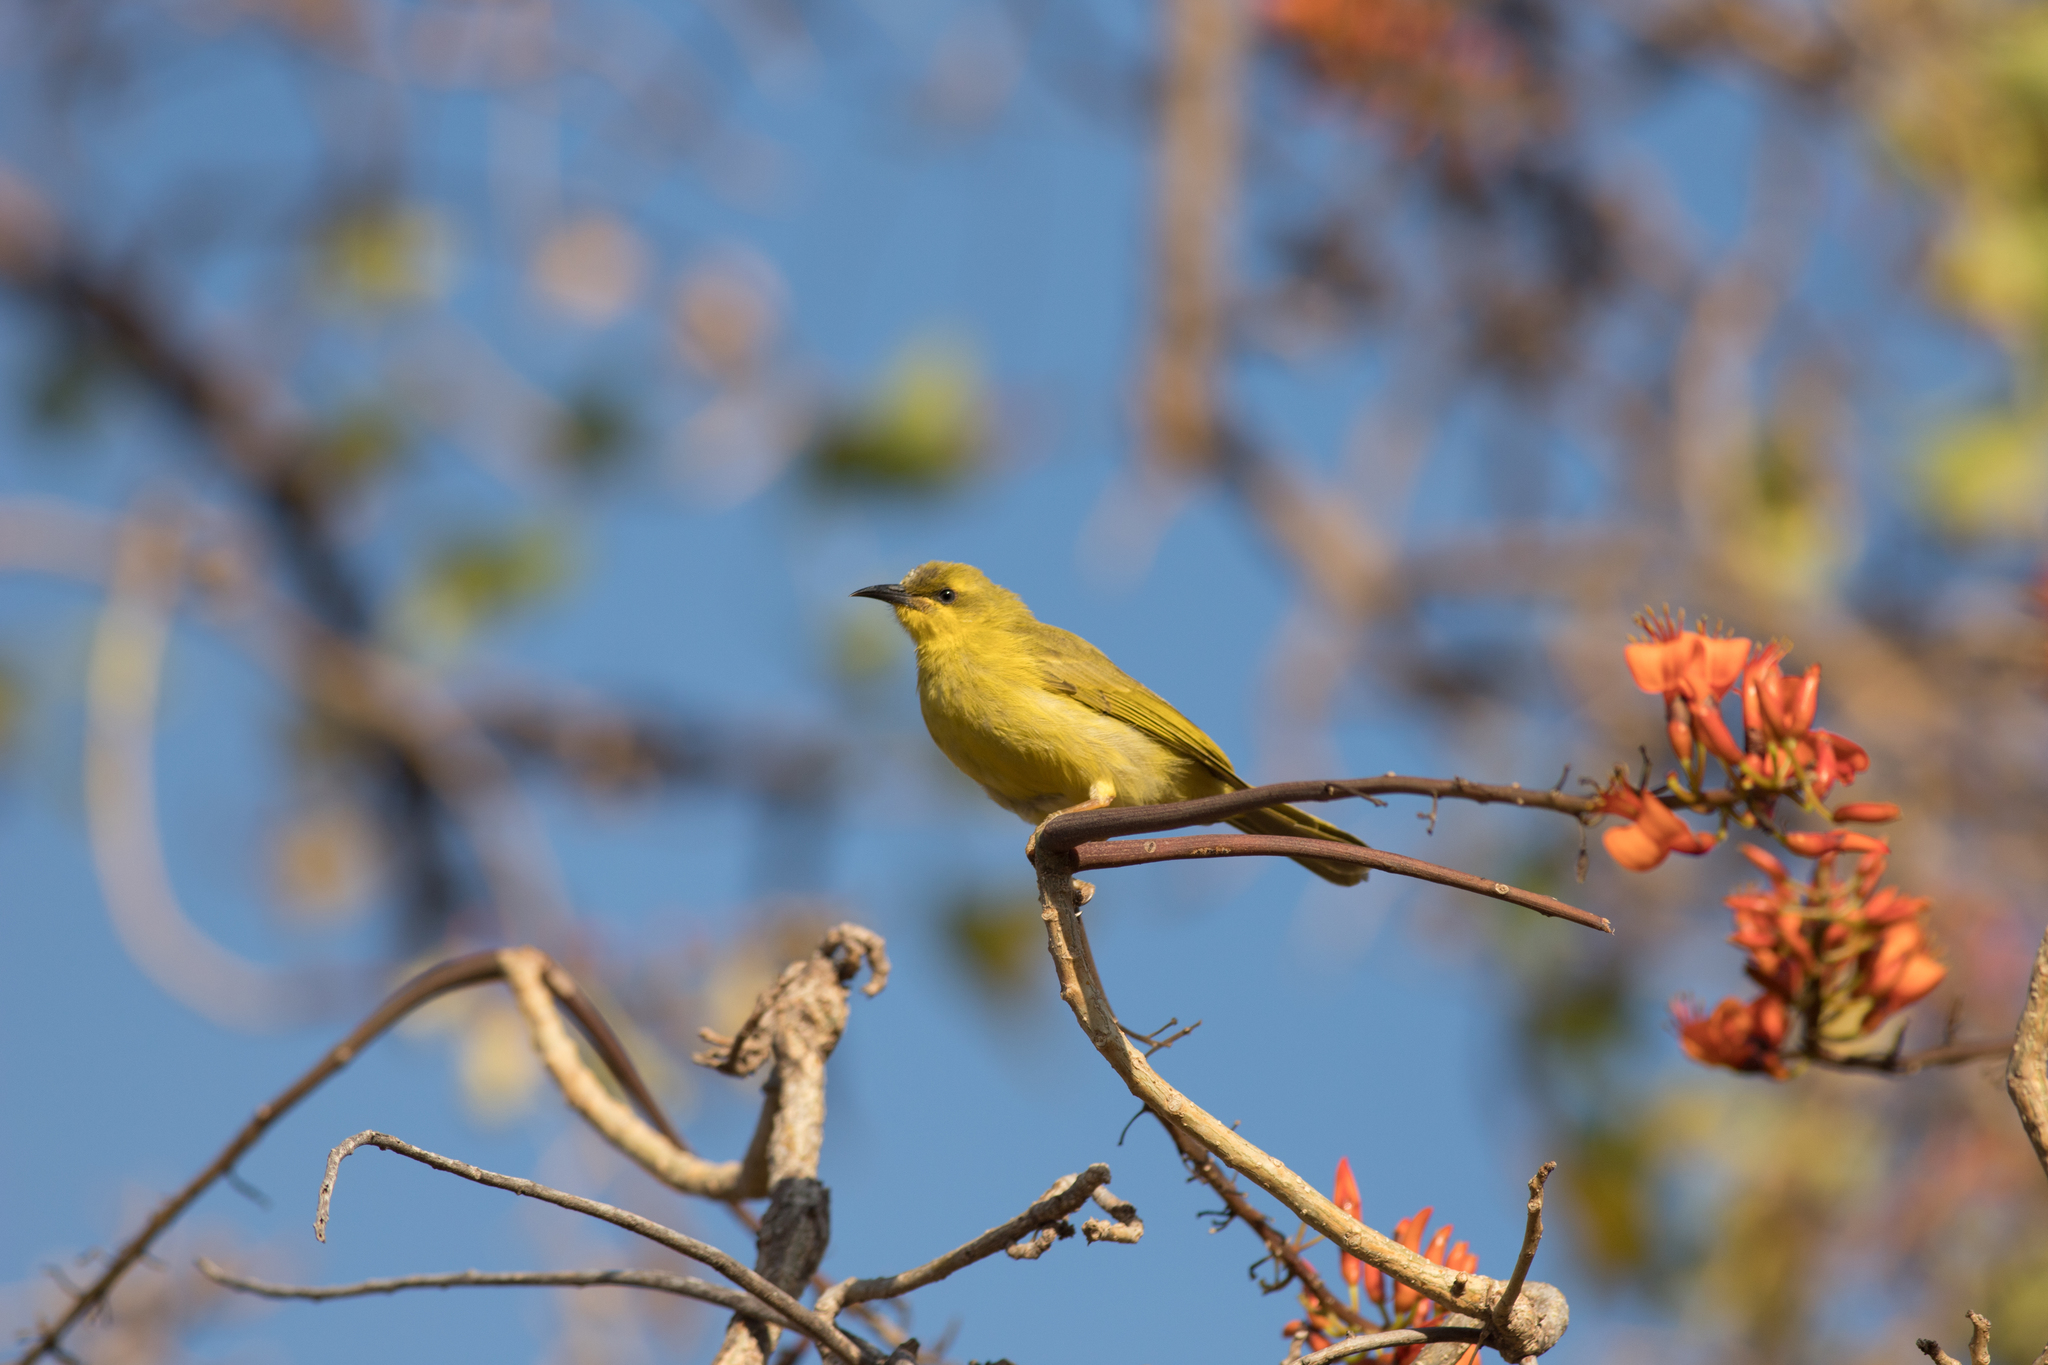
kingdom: Animalia
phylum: Chordata
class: Aves
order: Passeriformes
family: Meliphagidae
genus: Stomiopera
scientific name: Stomiopera flava
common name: Yellow honeyeater
